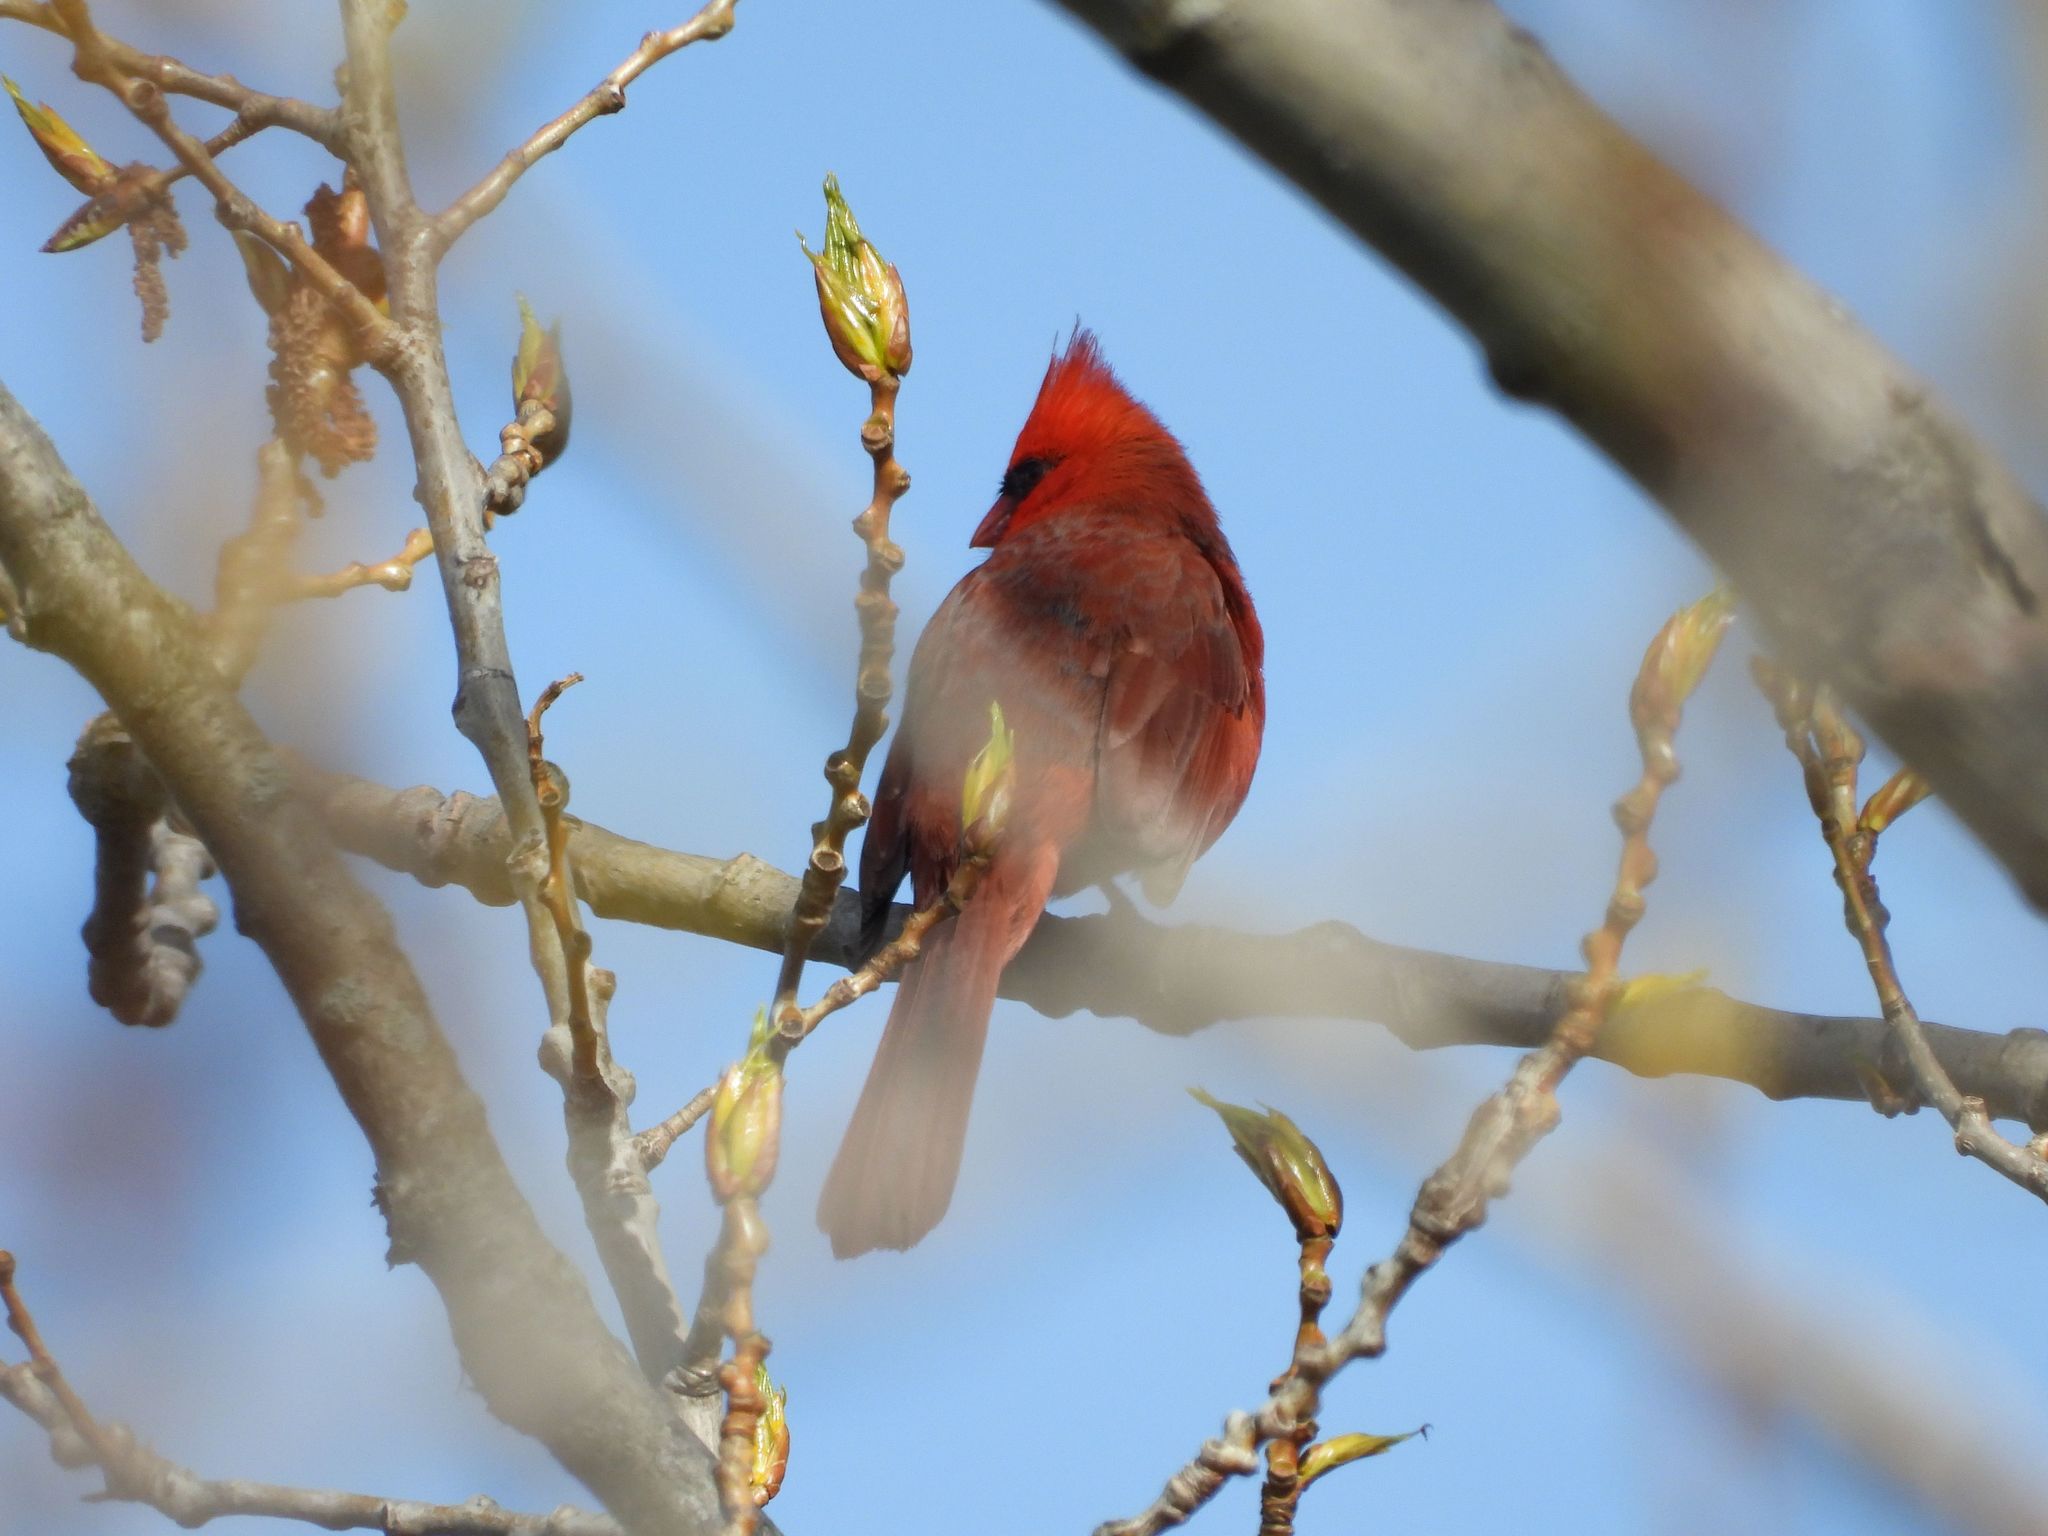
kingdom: Animalia
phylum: Chordata
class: Aves
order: Passeriformes
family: Cardinalidae
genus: Cardinalis
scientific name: Cardinalis cardinalis
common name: Northern cardinal
